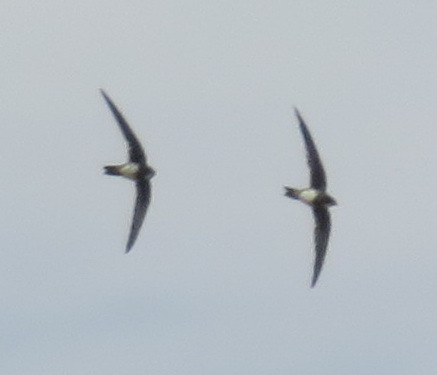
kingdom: Animalia
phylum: Chordata
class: Aves
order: Apodiformes
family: Apodidae
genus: Tachymarptis
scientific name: Tachymarptis melba
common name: Alpine swift
